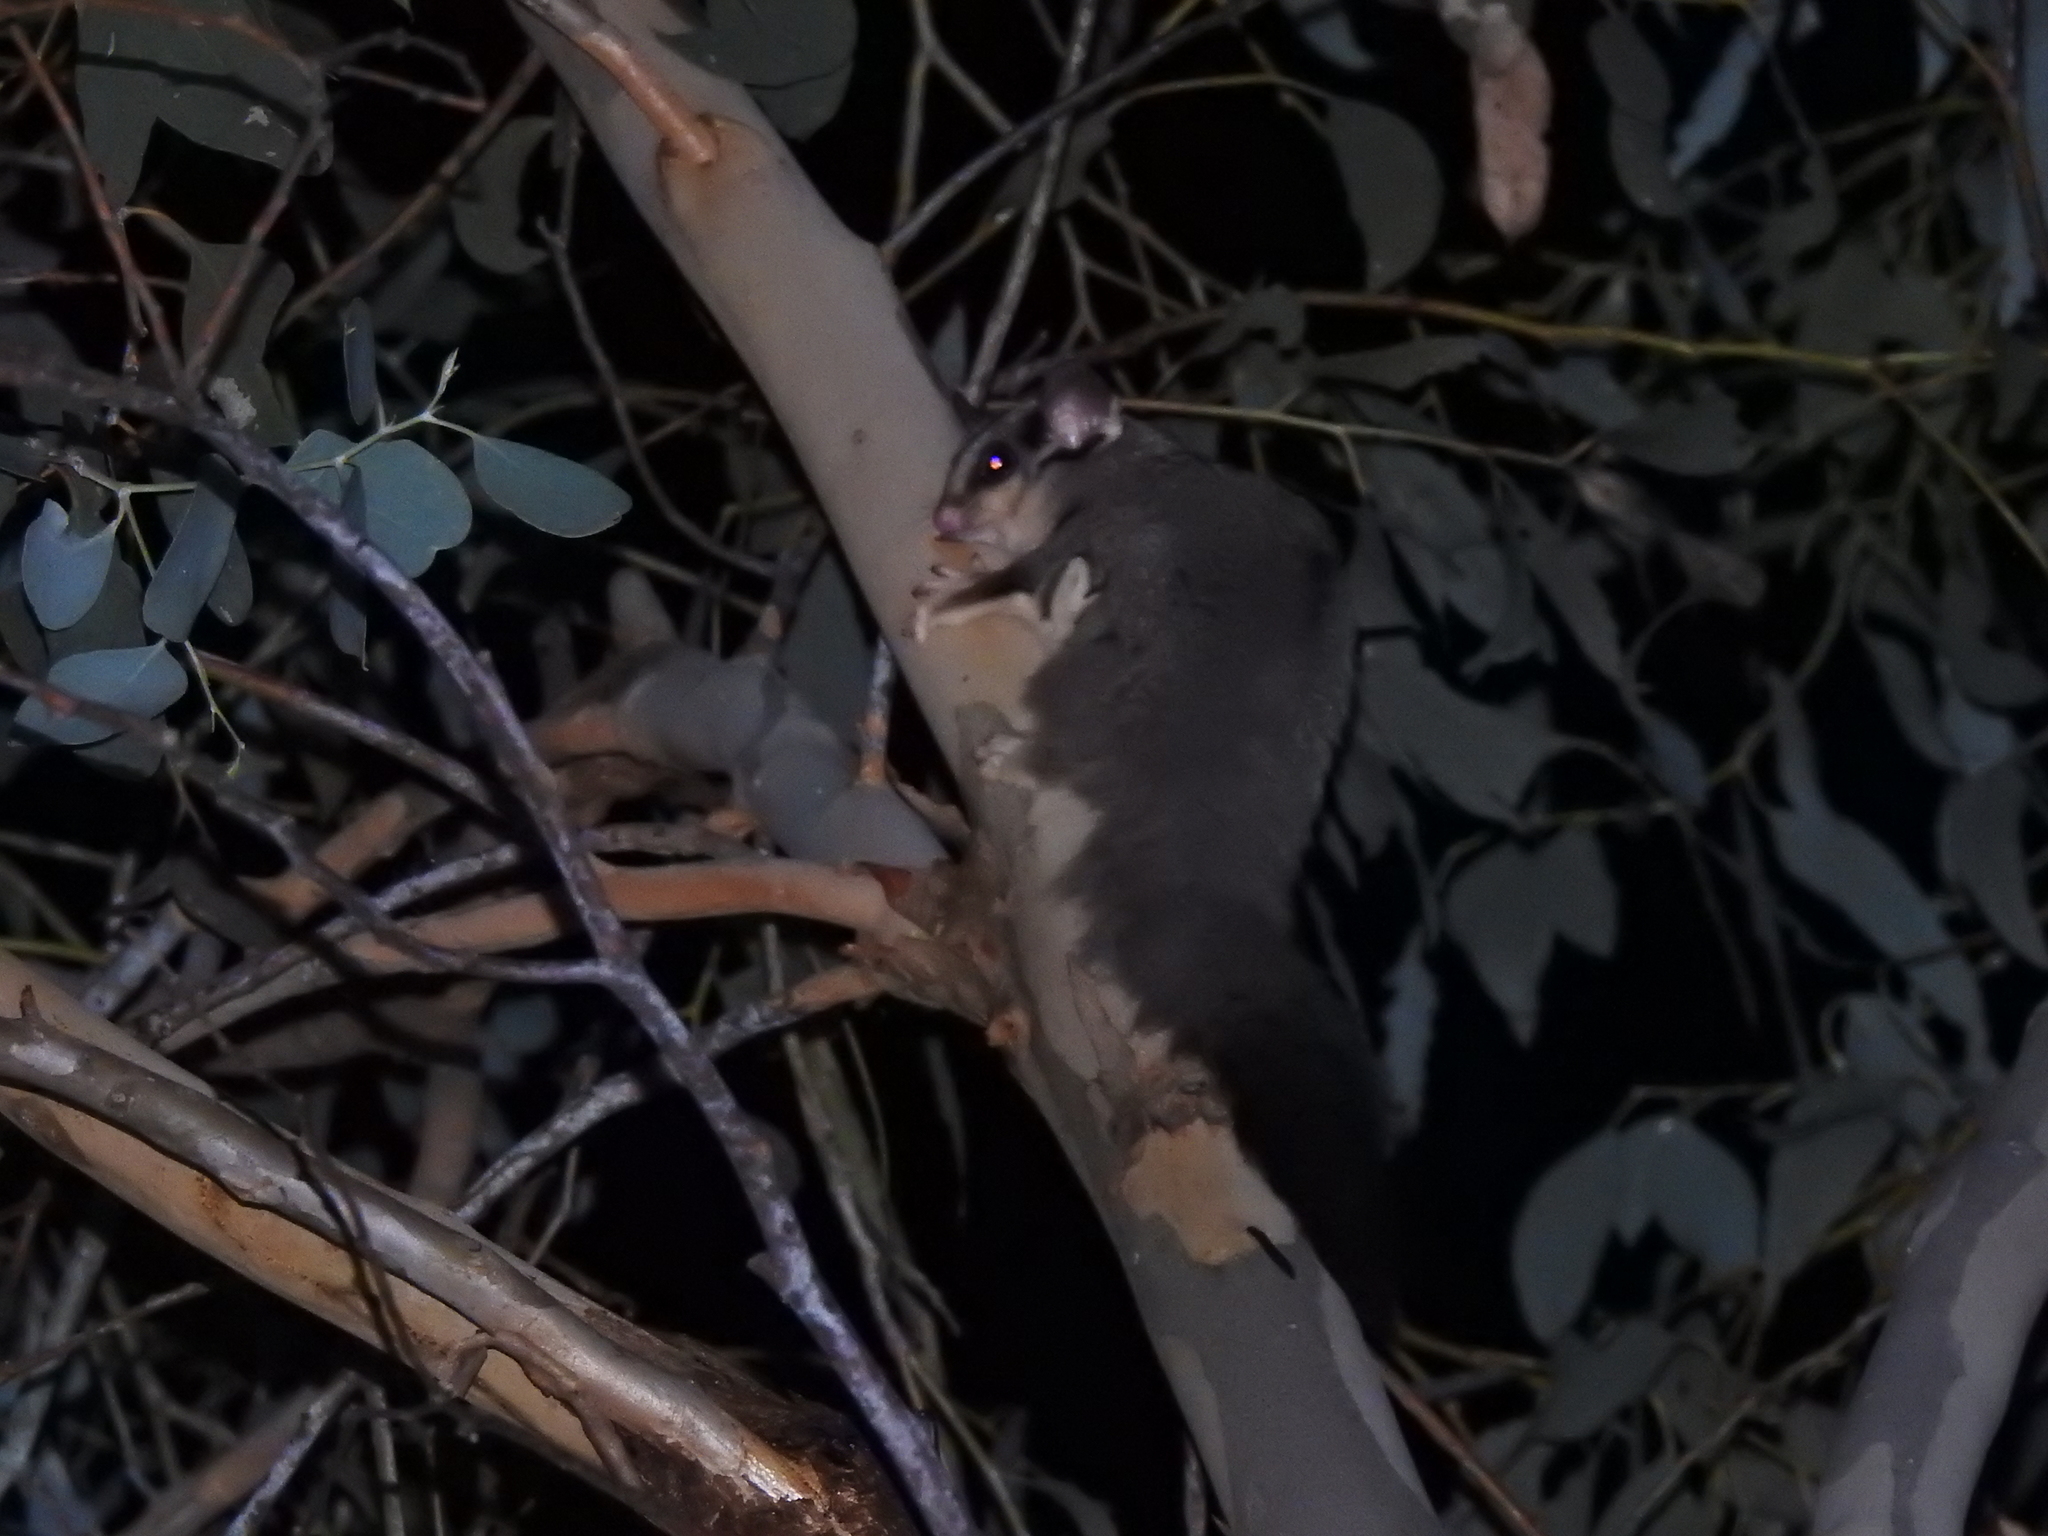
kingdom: Animalia
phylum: Chordata
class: Mammalia
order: Diprotodontia
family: Petauridae
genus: Petaurus
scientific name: Petaurus norfolcensis
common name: Squirrel glider
